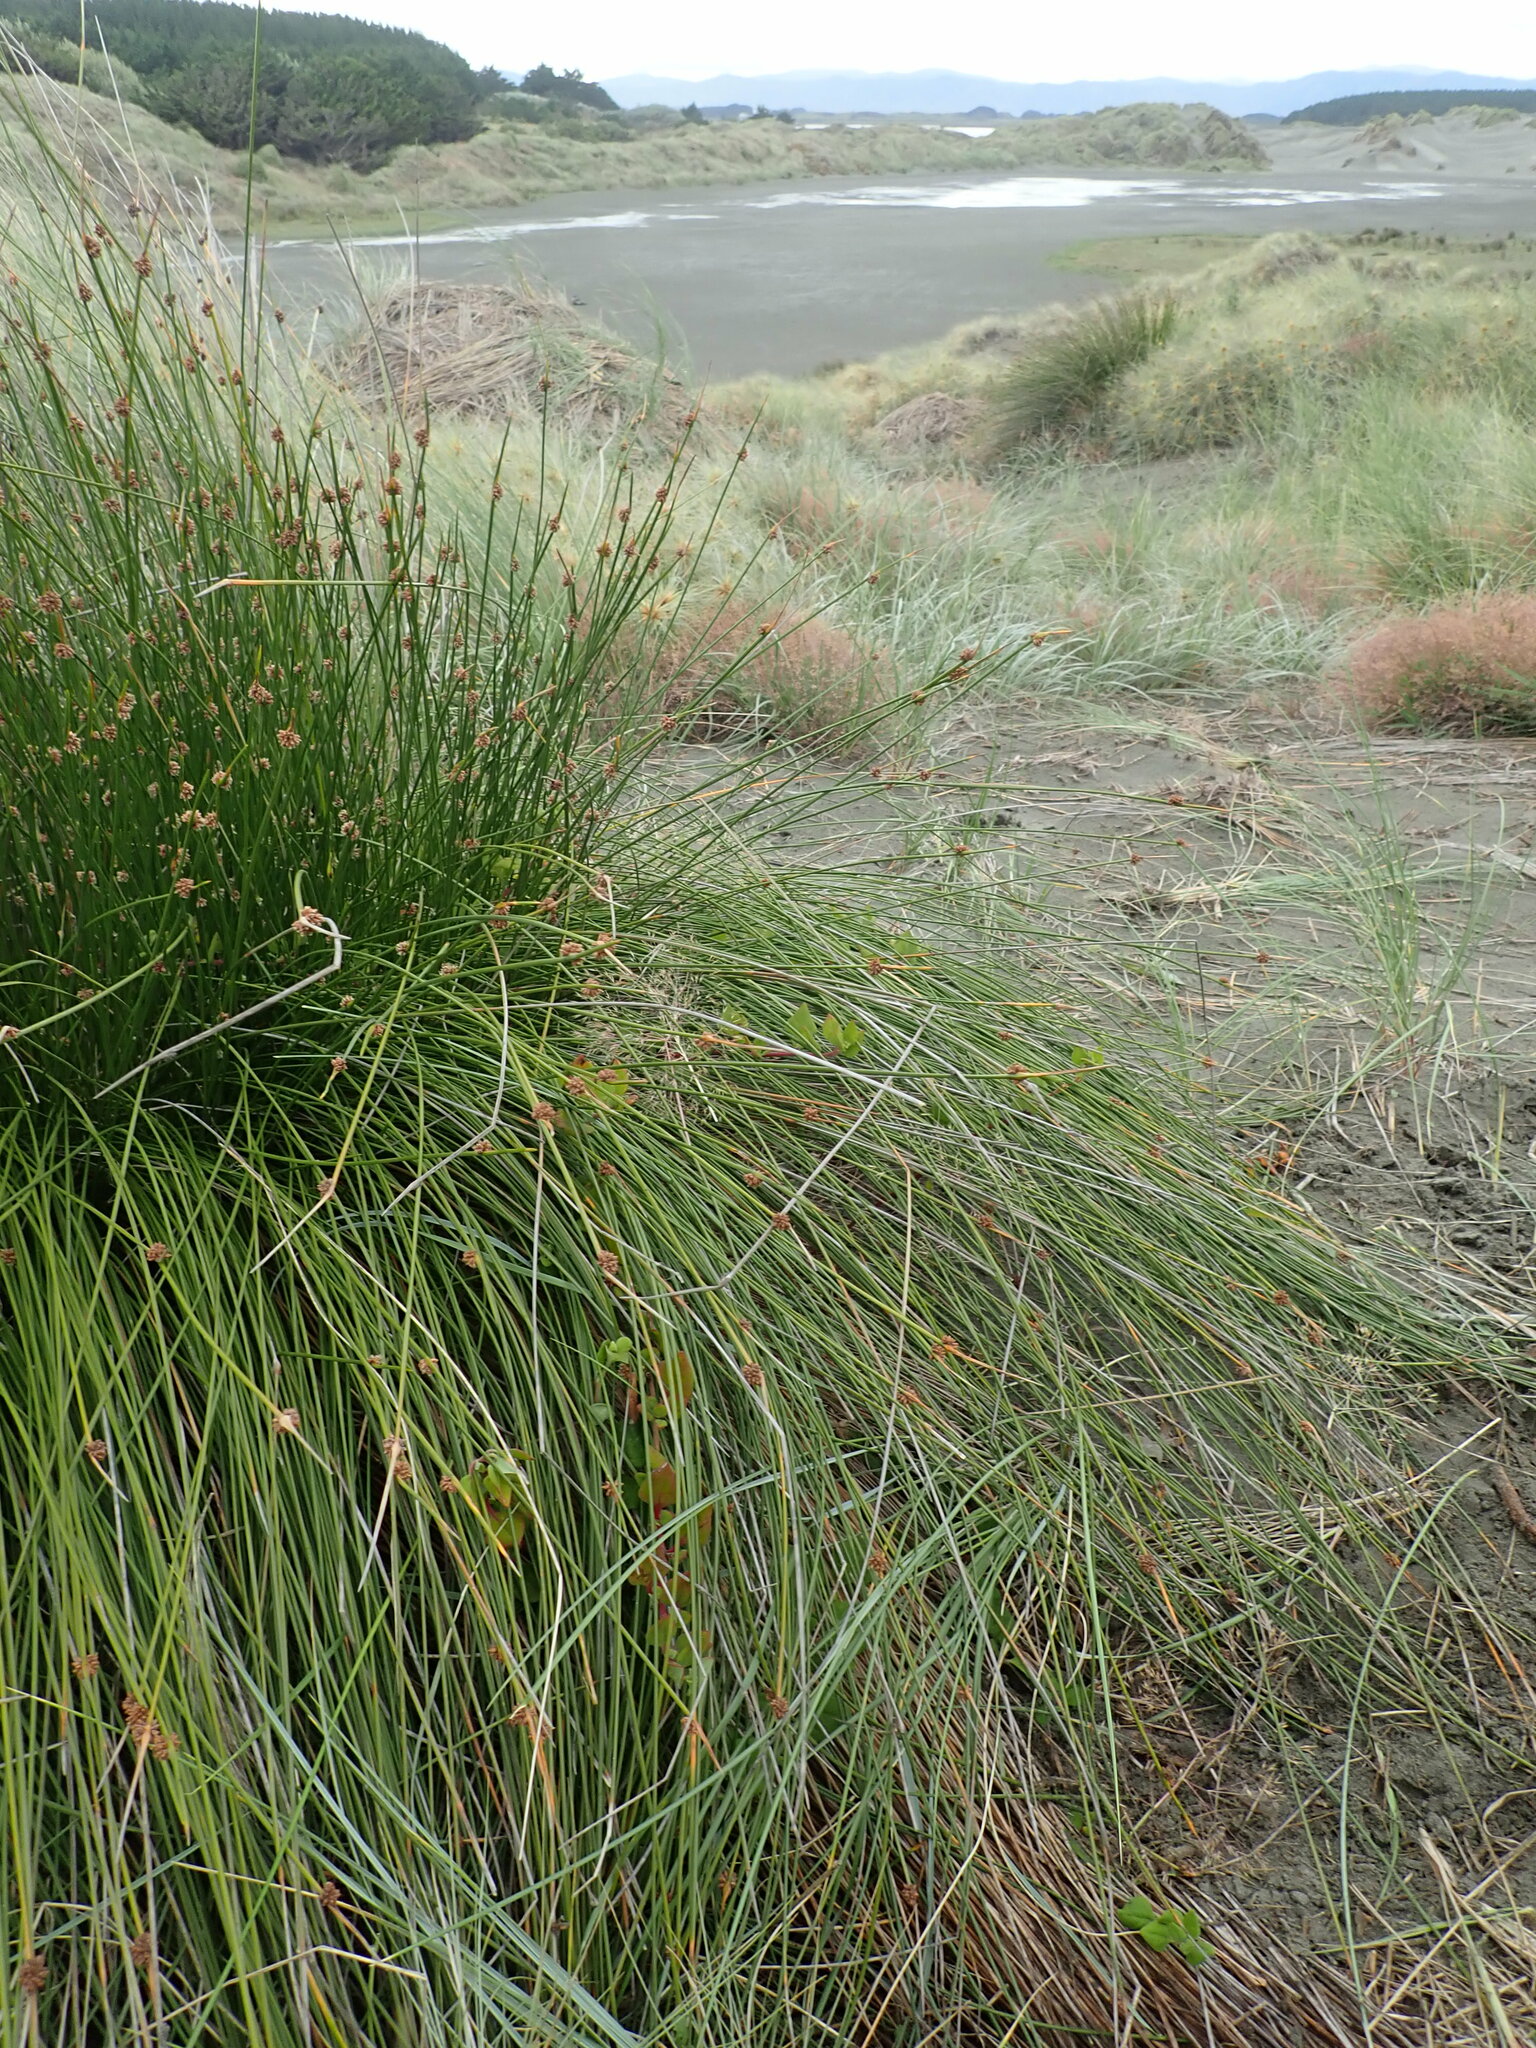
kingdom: Plantae
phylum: Tracheophyta
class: Magnoliopsida
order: Caryophyllales
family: Aizoaceae
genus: Tetragonia
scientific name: Tetragonia implexicoma
